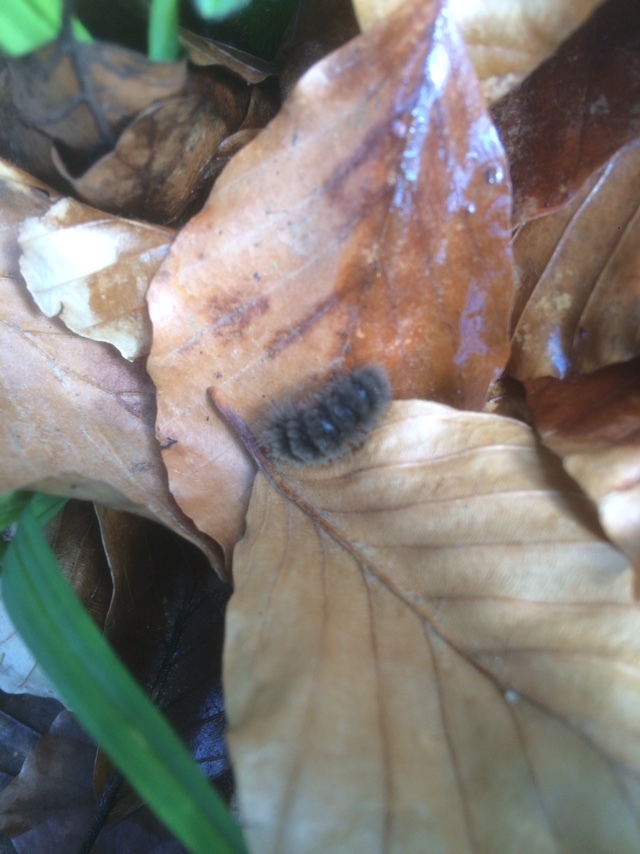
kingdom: Animalia
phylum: Arthropoda
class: Insecta
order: Lepidoptera
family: Erebidae
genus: Amata
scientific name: Amata phegea
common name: Nine-spotted
